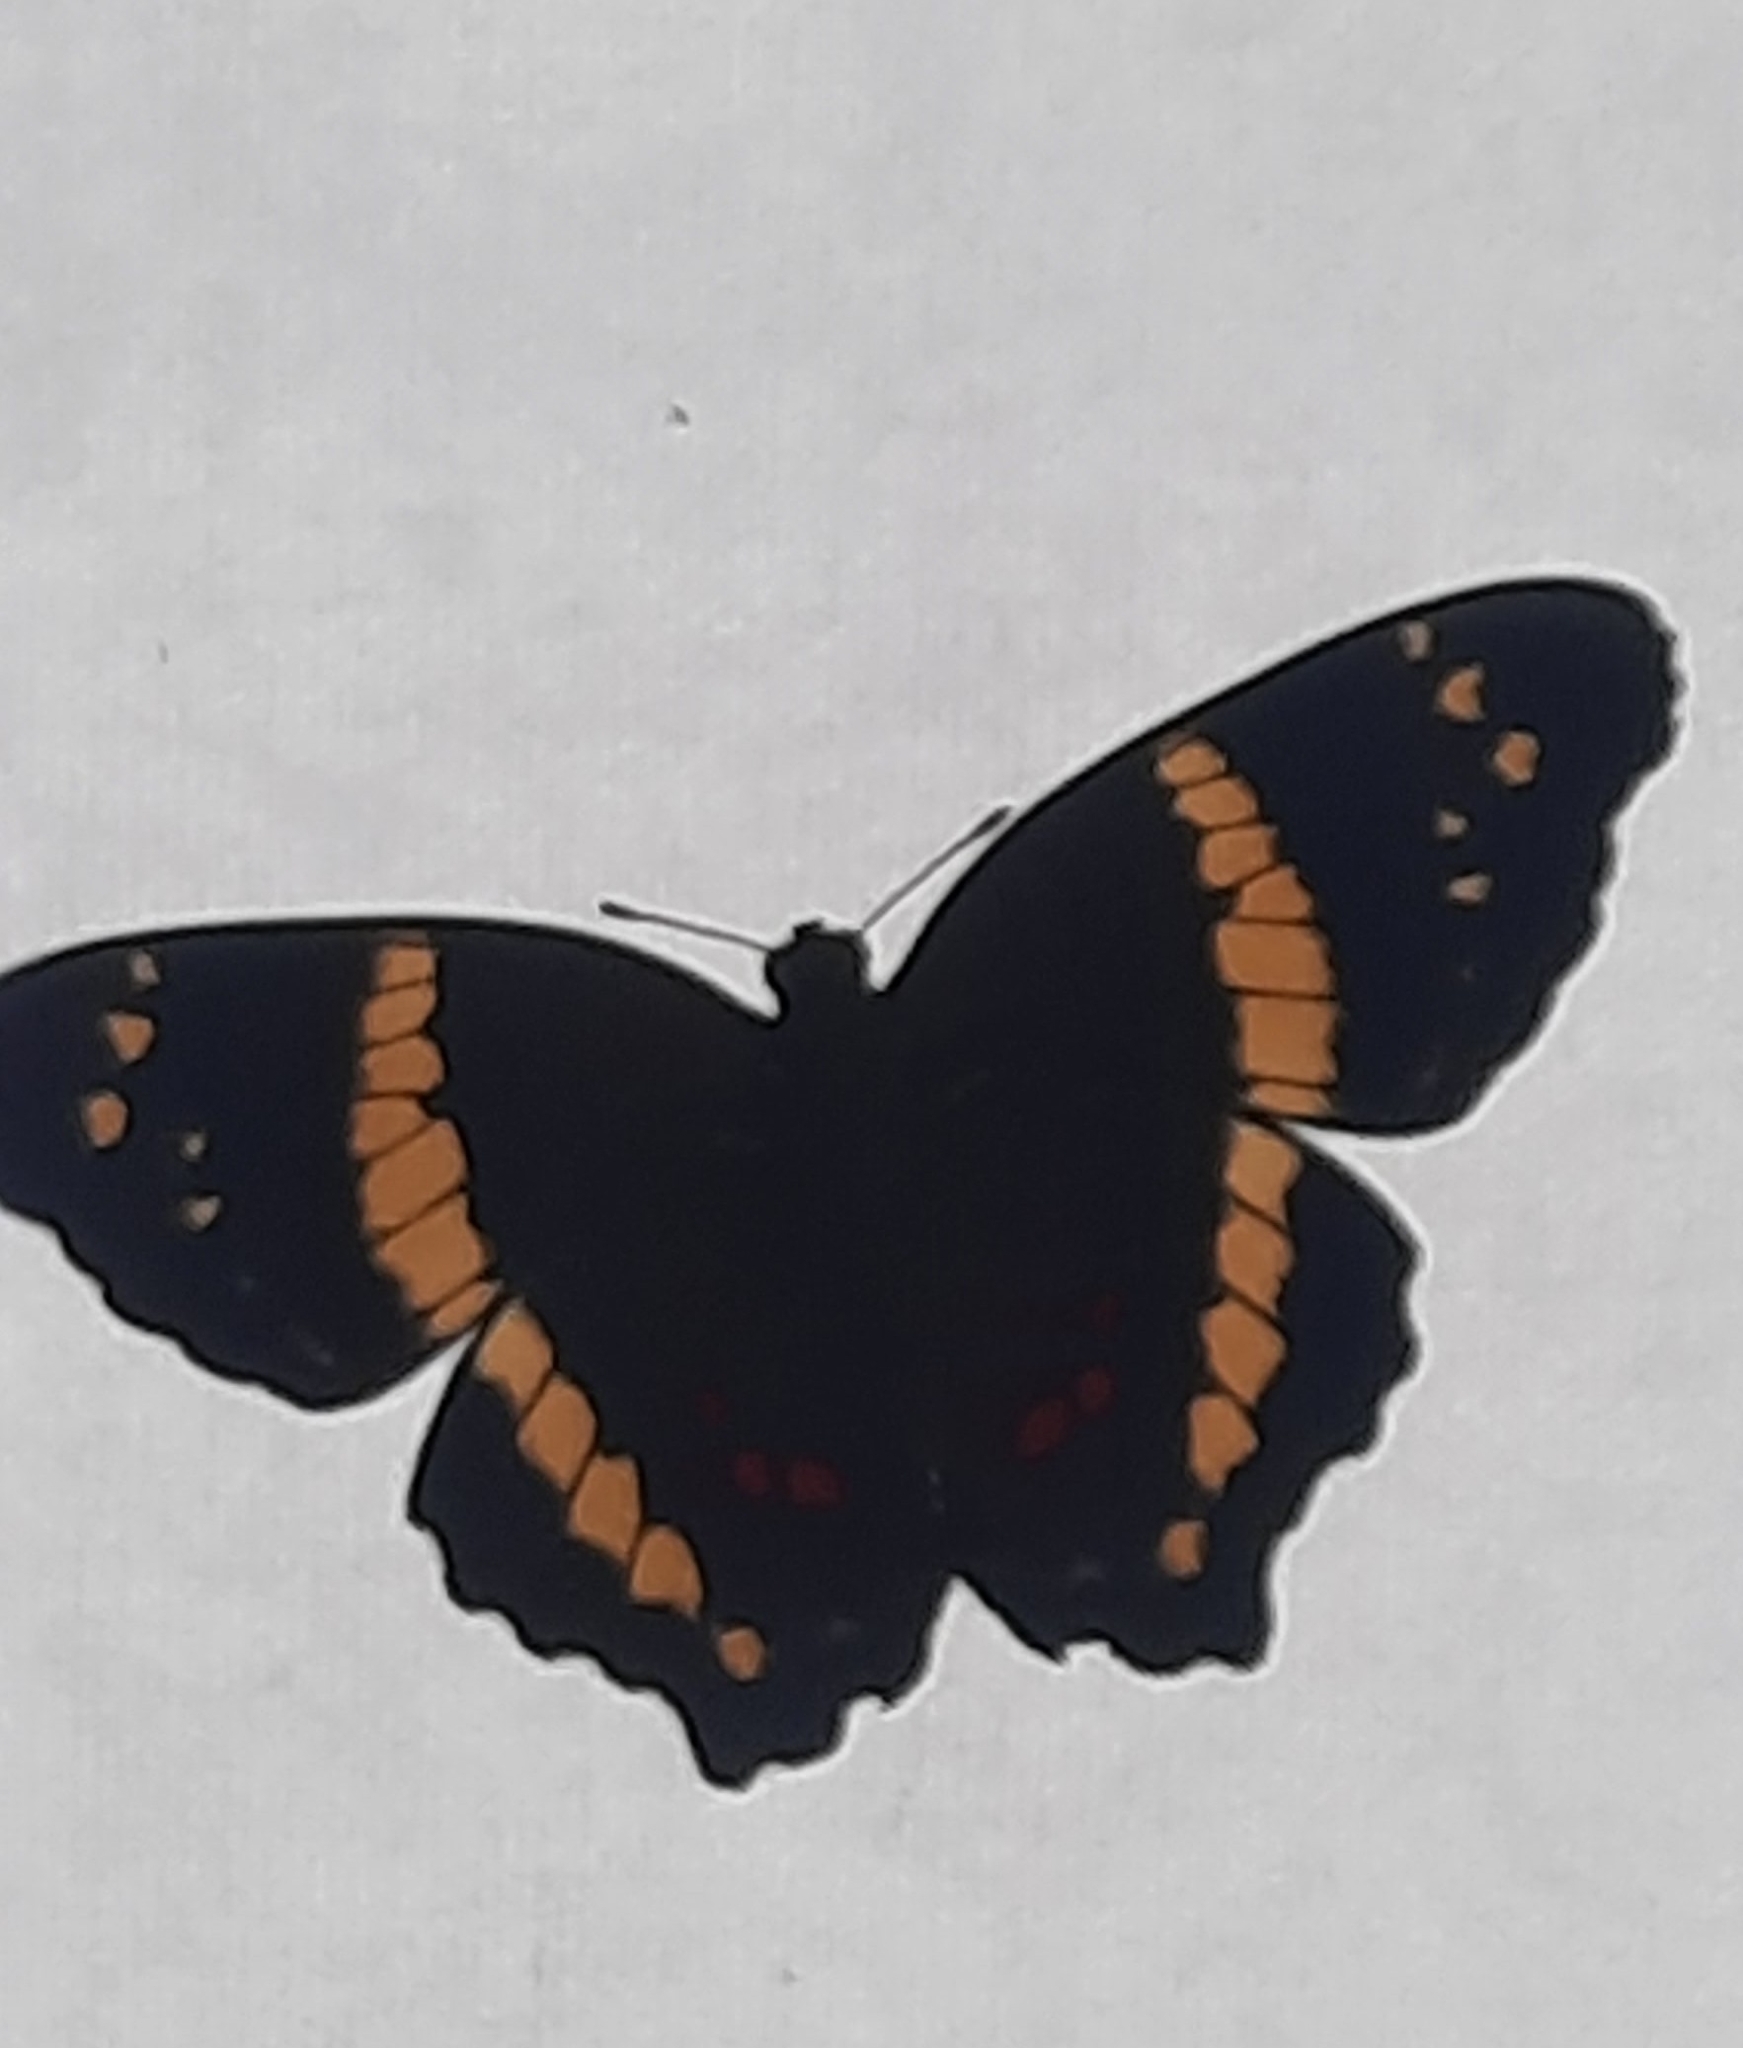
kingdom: Animalia
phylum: Arthropoda
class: Insecta
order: Lepidoptera
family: Nymphalidae
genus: Anartia
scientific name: Anartia fatima
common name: Banded peacock
